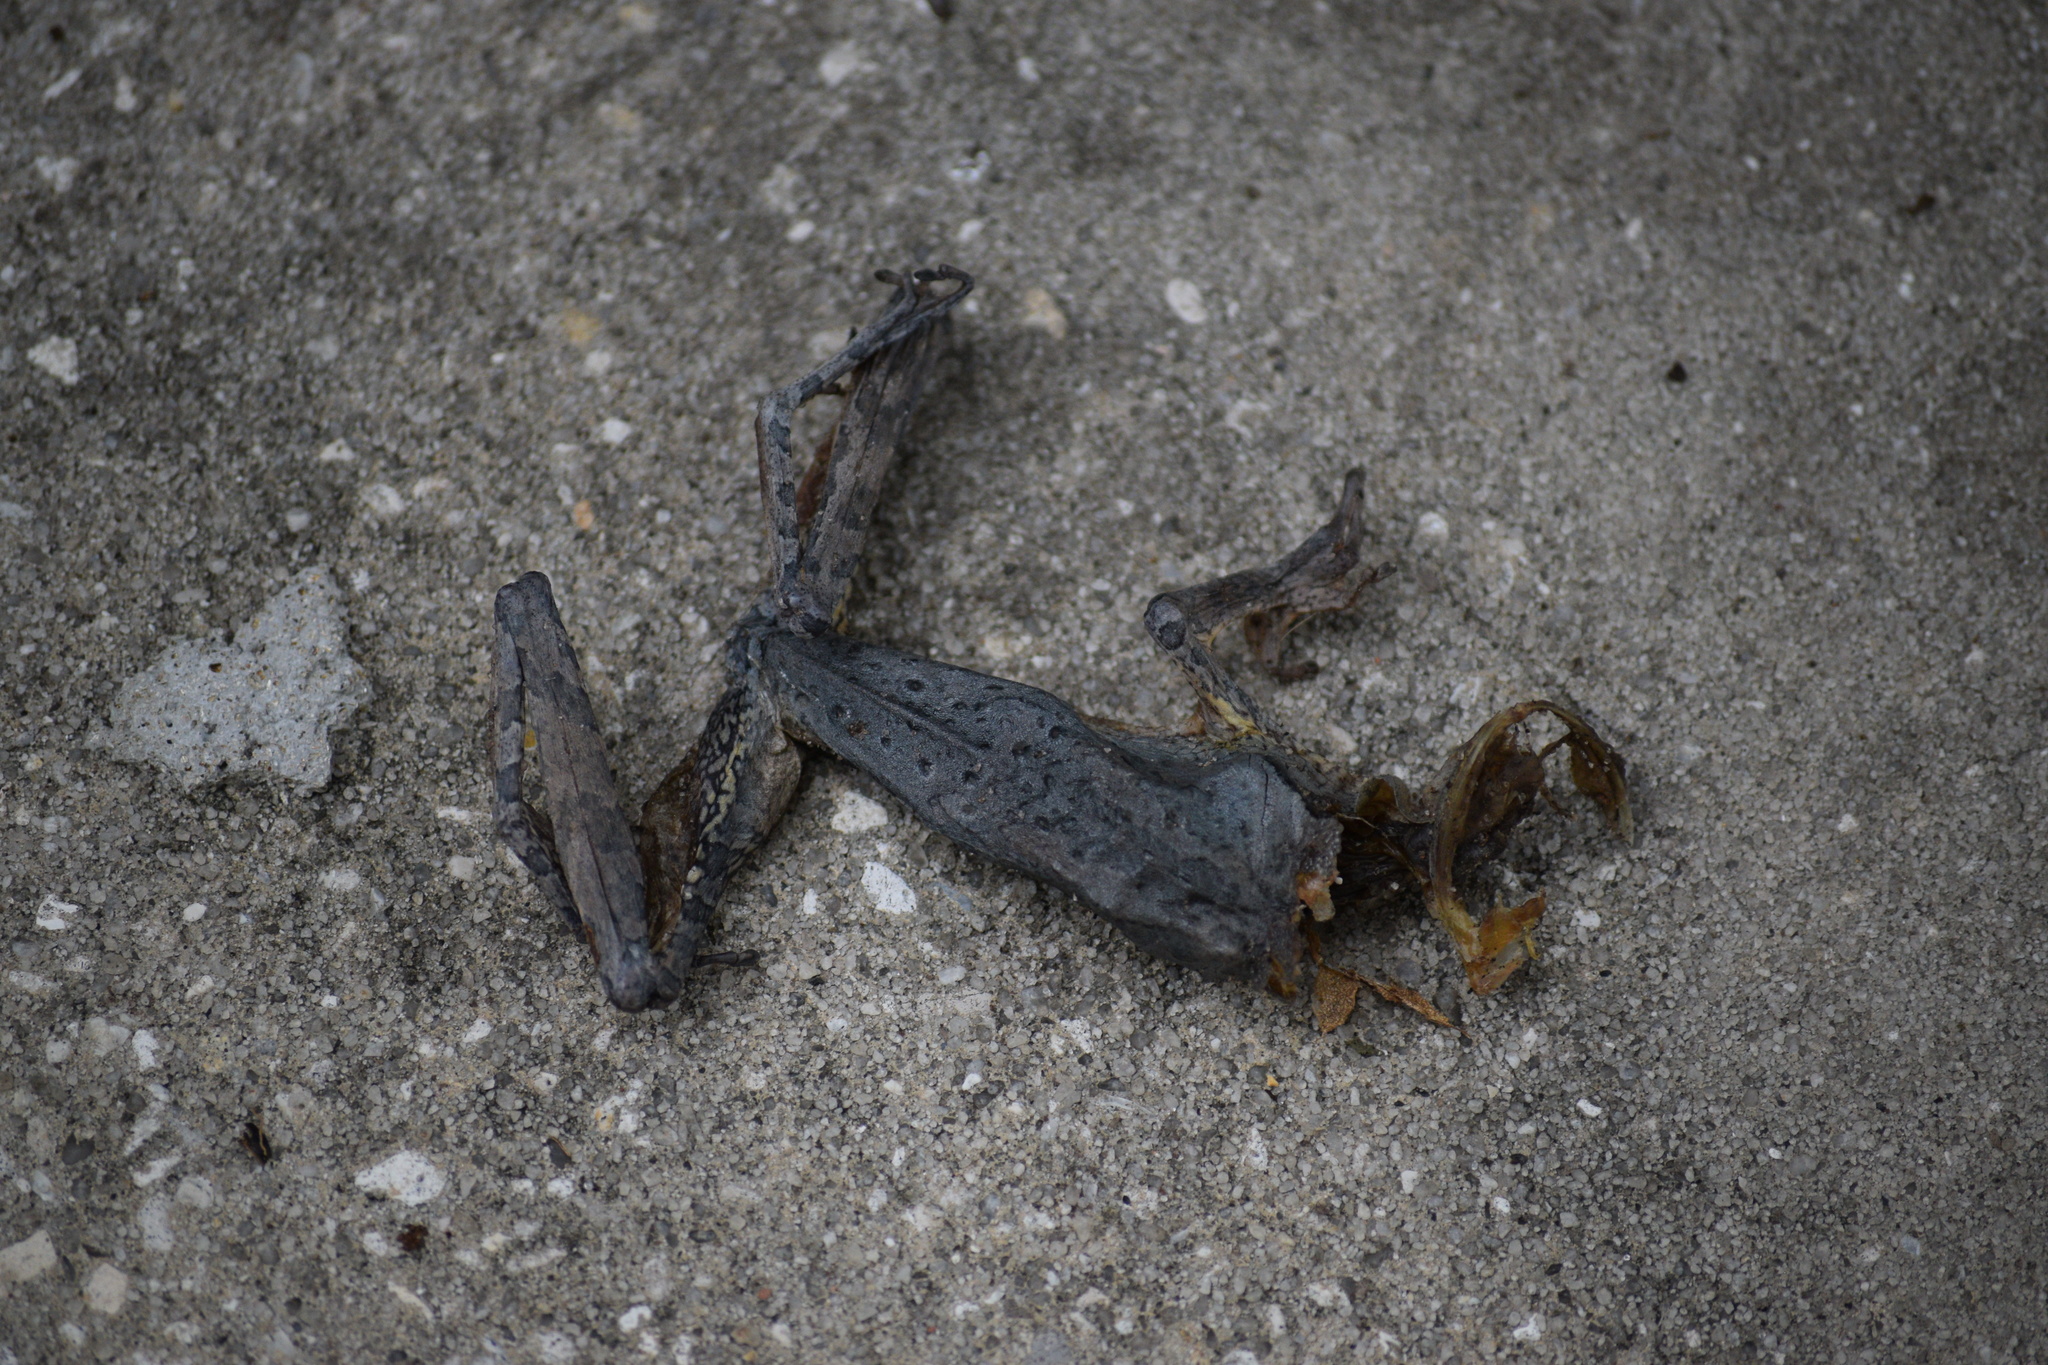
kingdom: Animalia
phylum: Chordata
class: Amphibia
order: Anura
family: Hylidae
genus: Osteopilus
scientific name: Osteopilus septentrionalis
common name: Cuban treefrog
